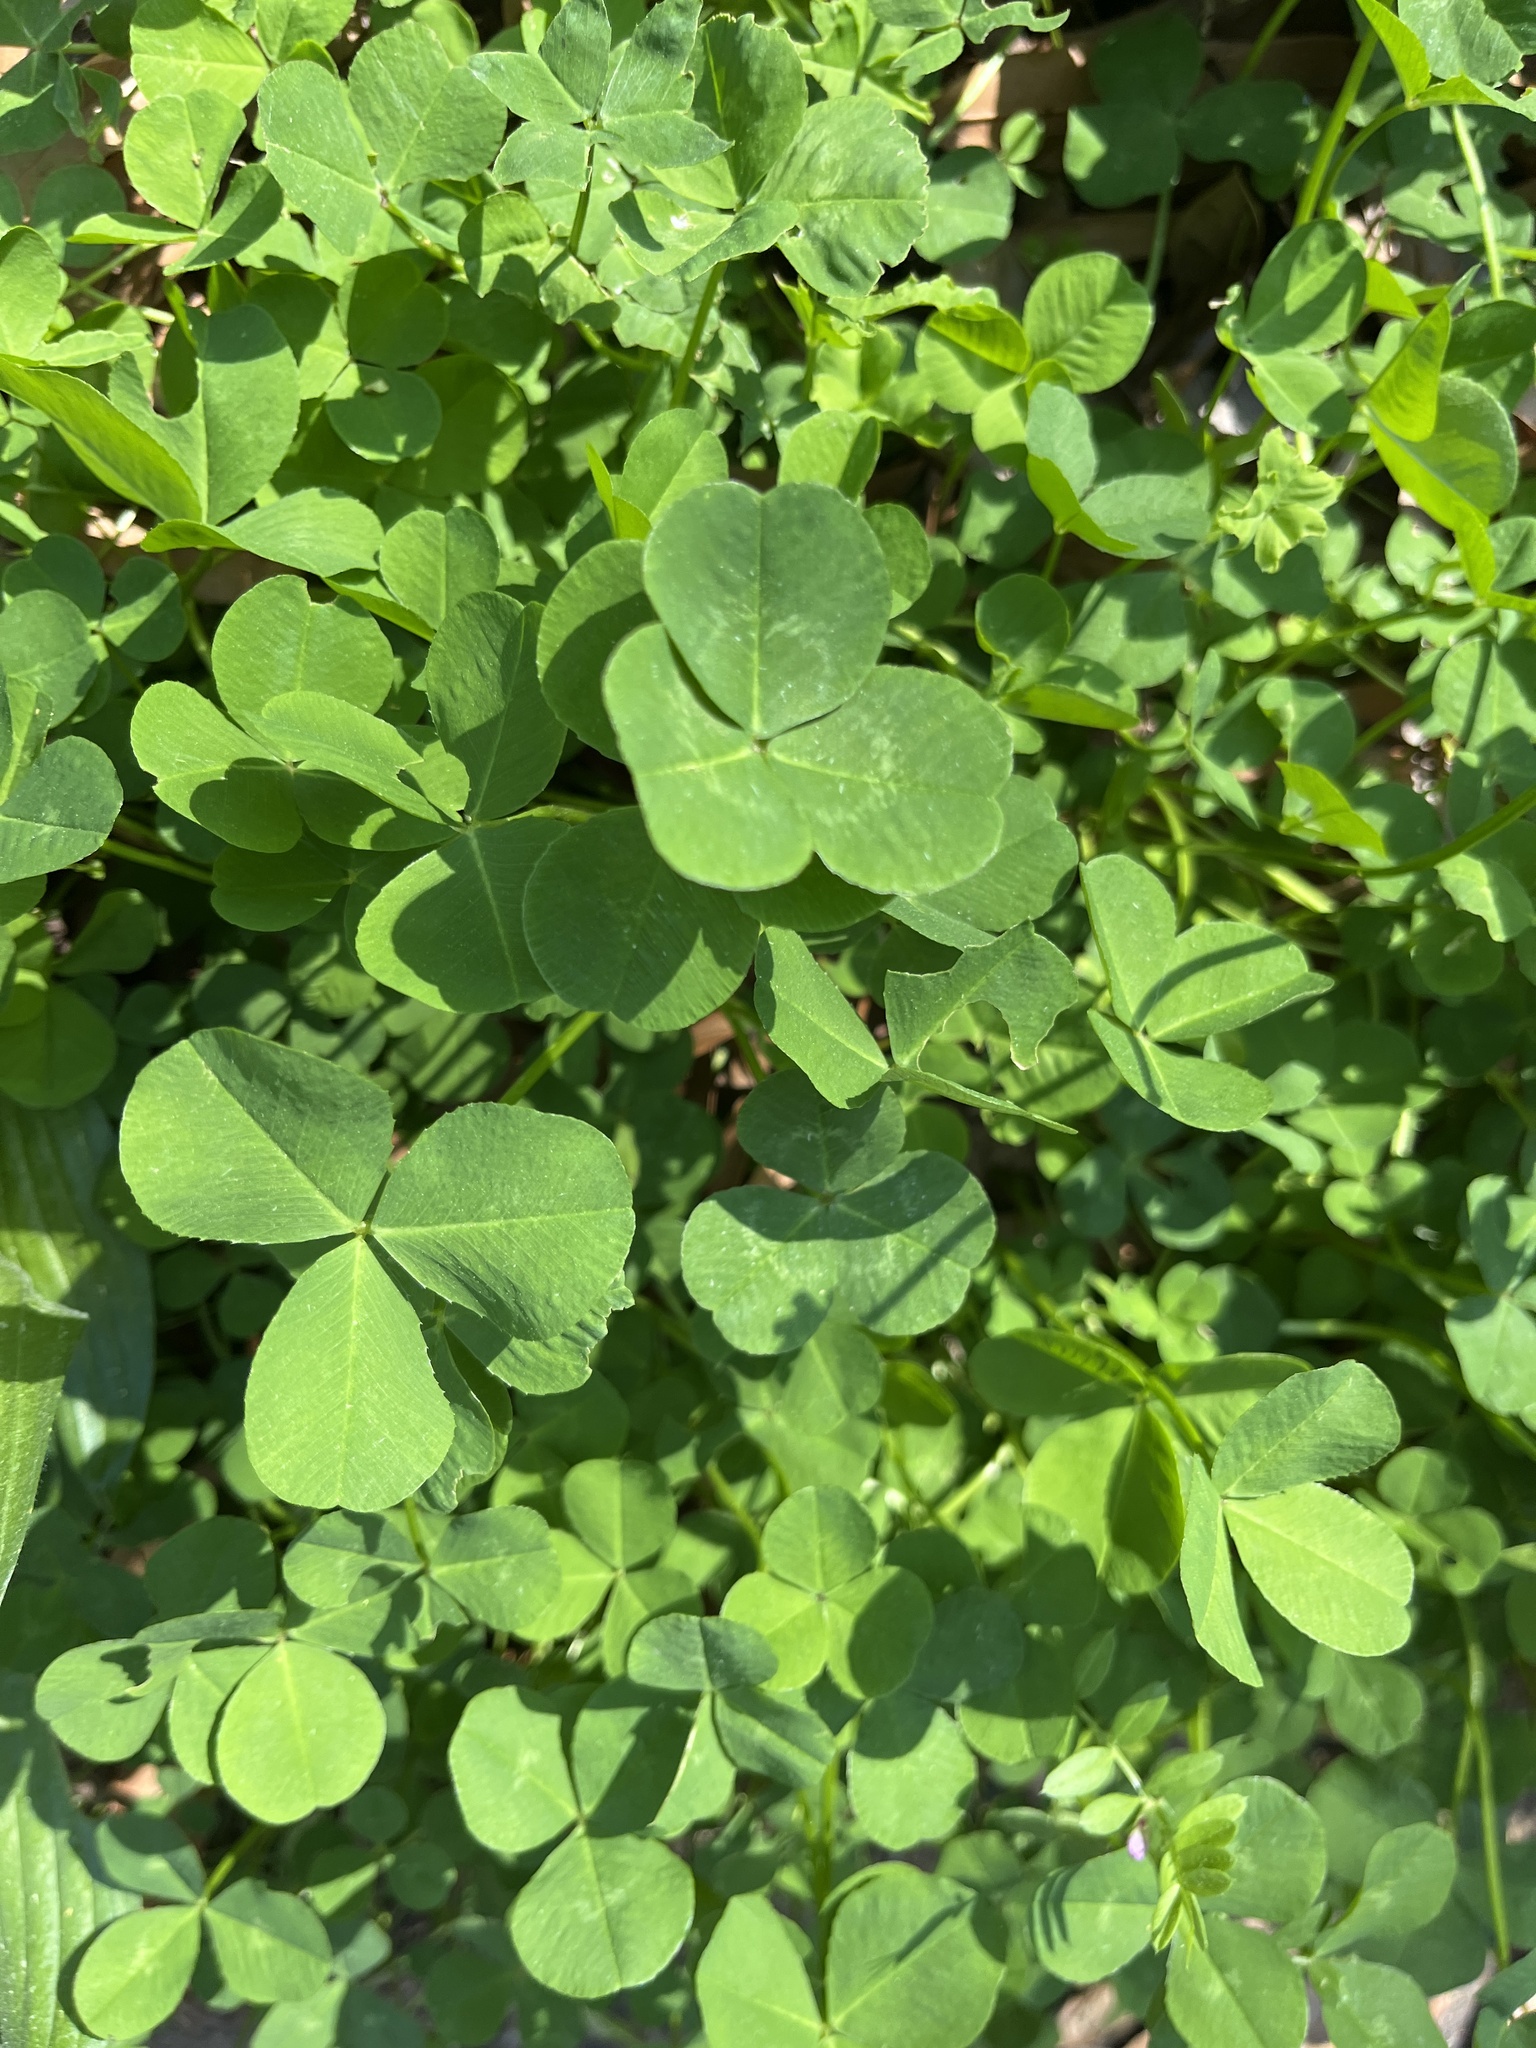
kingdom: Plantae
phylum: Tracheophyta
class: Magnoliopsida
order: Fabales
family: Fabaceae
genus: Trifolium
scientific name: Trifolium repens
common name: White clover
